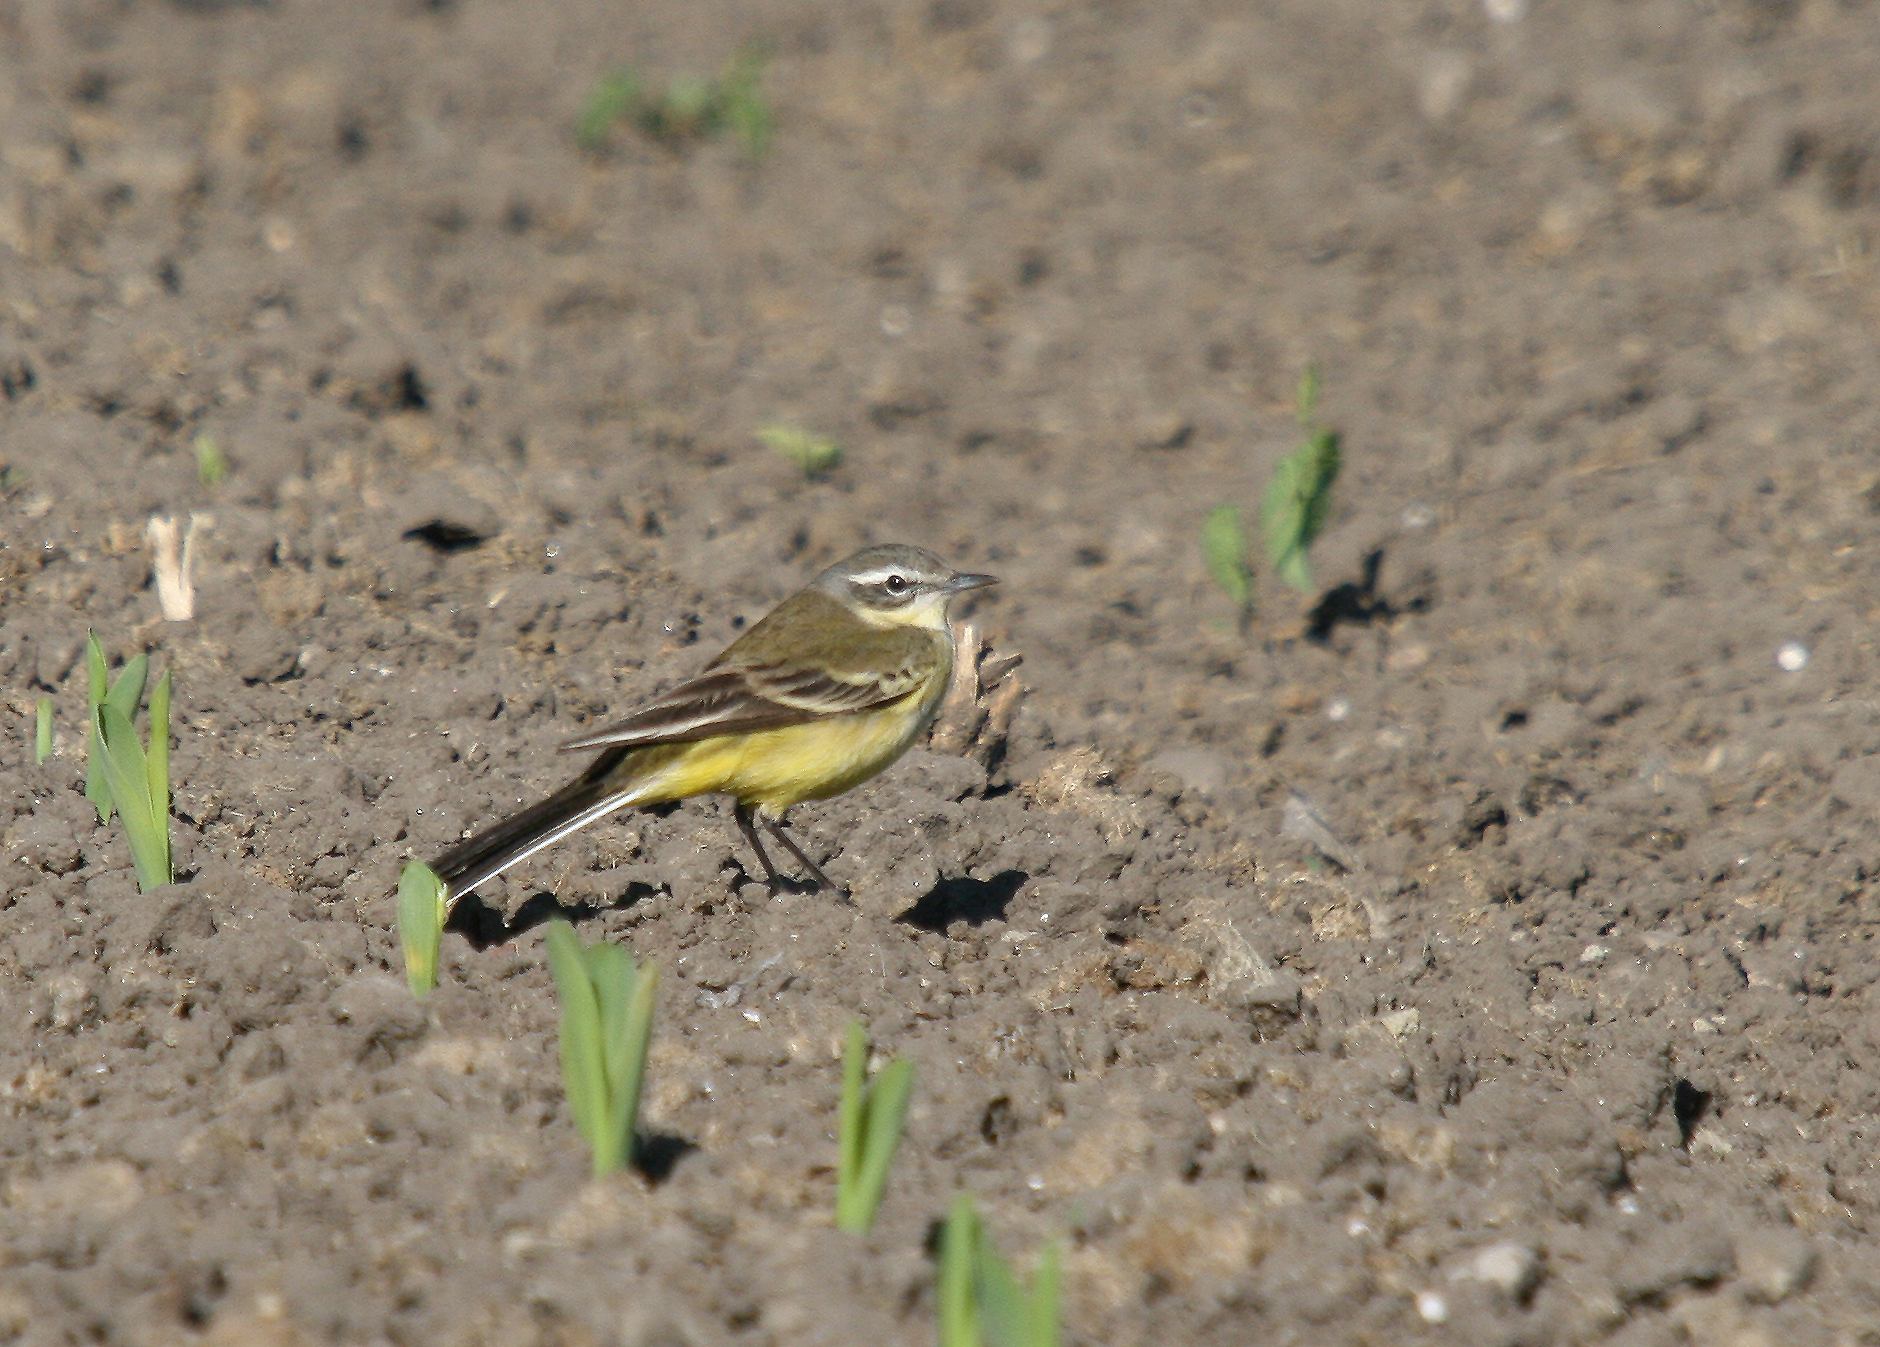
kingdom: Animalia
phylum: Chordata
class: Aves
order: Passeriformes
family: Motacillidae
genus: Motacilla
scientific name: Motacilla flava
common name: Western yellow wagtail
